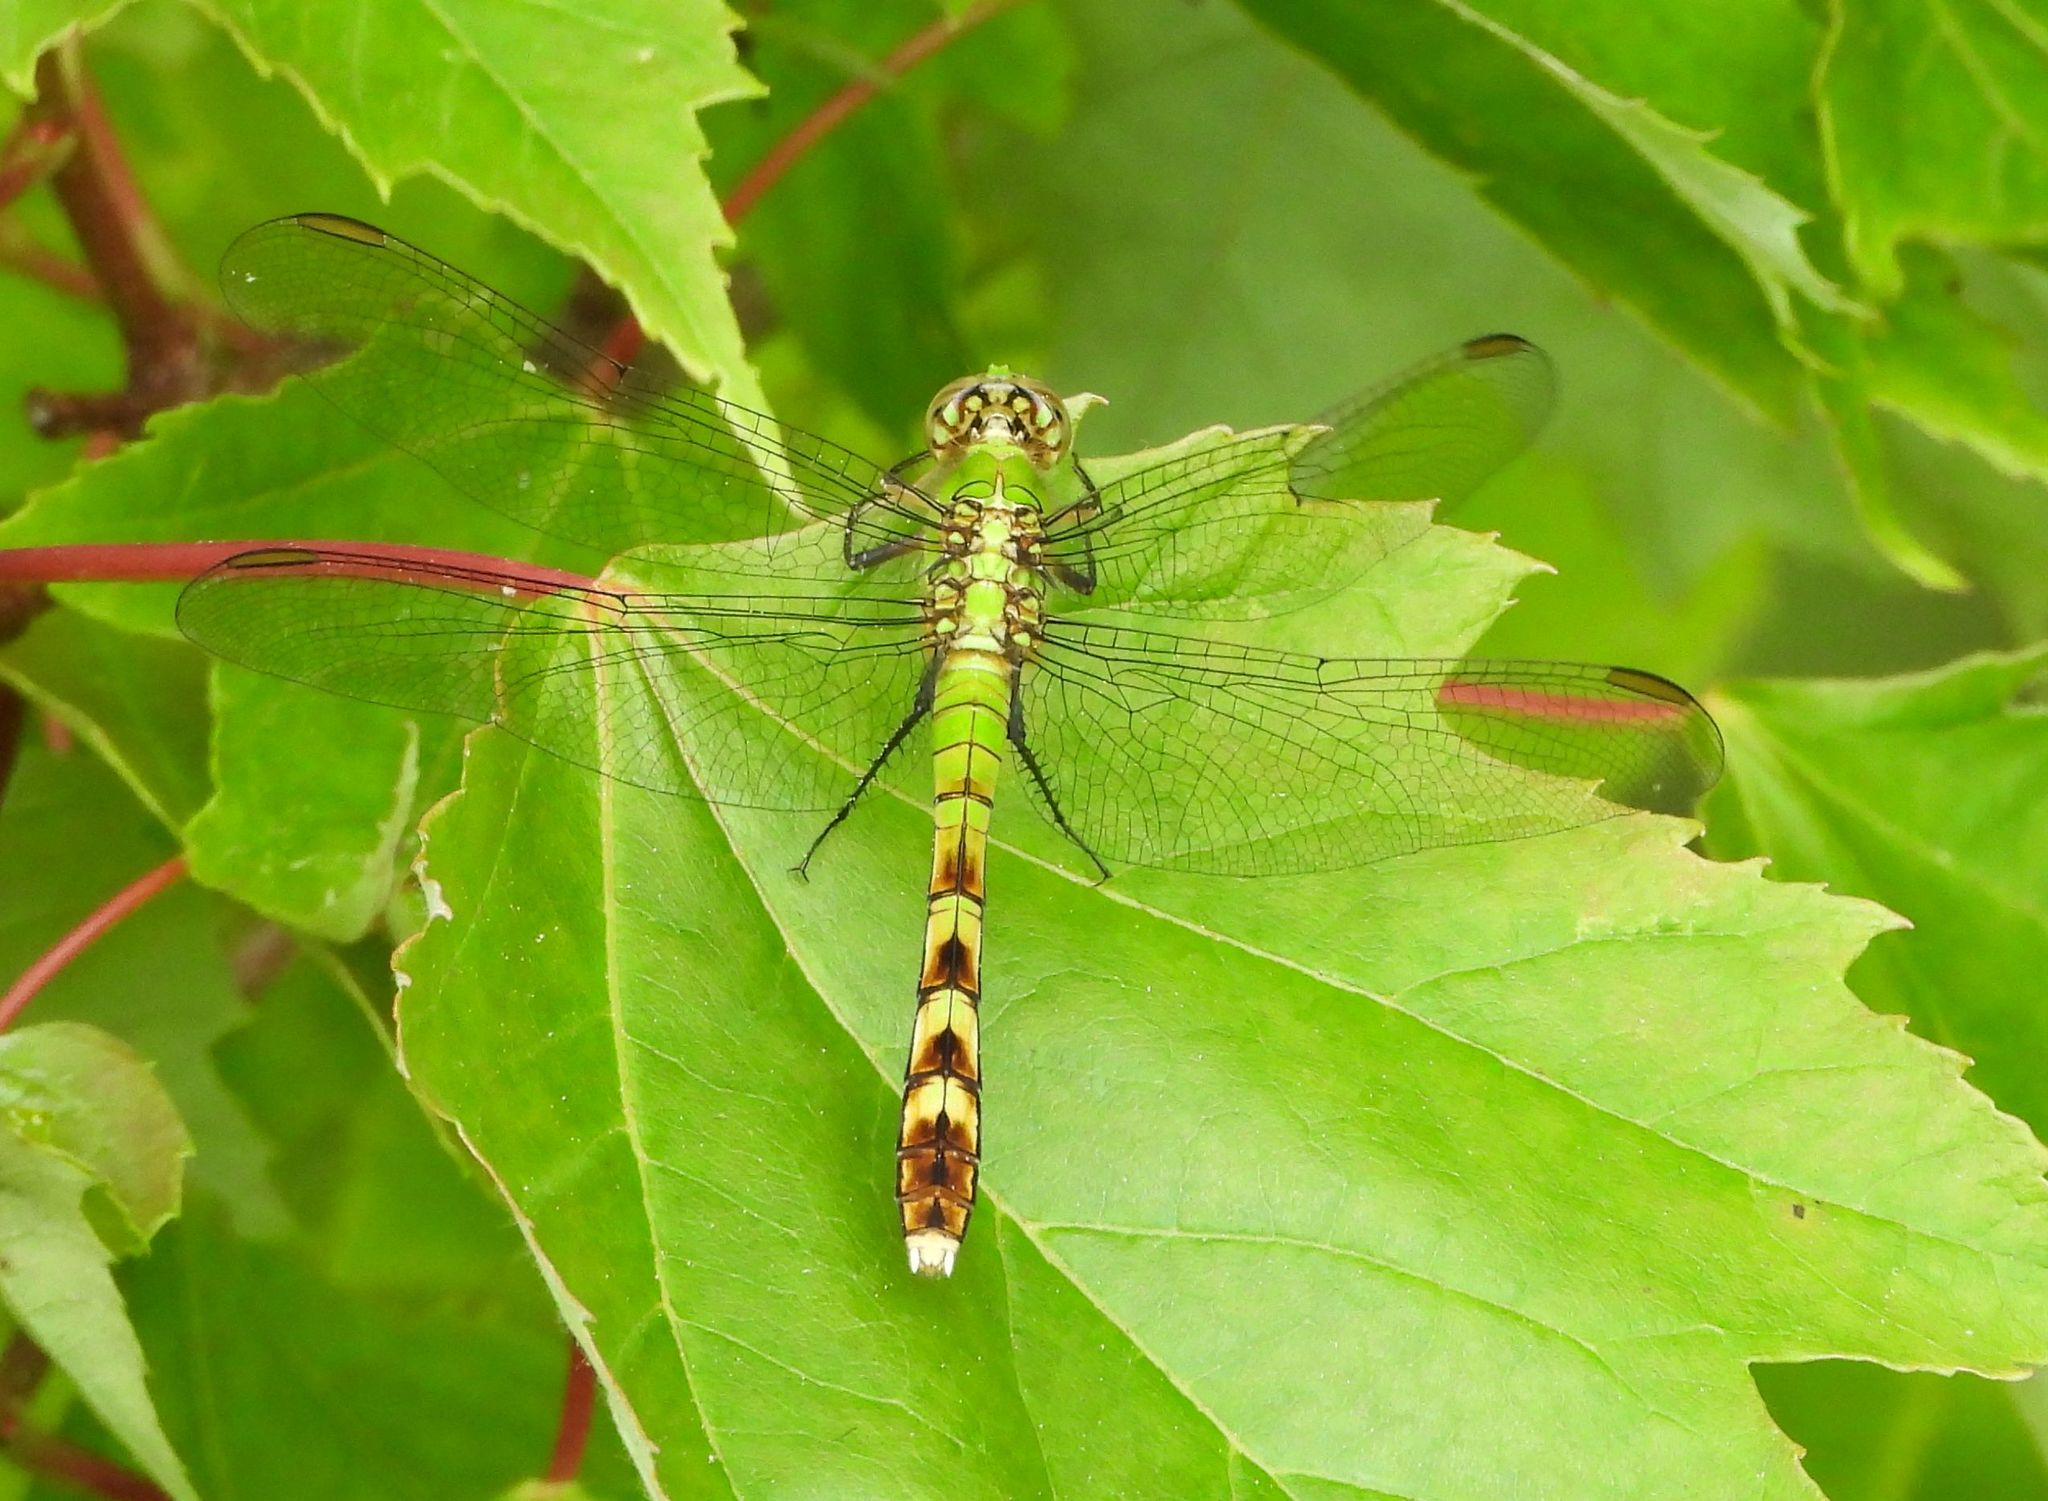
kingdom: Animalia
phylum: Arthropoda
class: Insecta
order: Odonata
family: Libellulidae
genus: Erythemis
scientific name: Erythemis simplicicollis
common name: Eastern pondhawk
